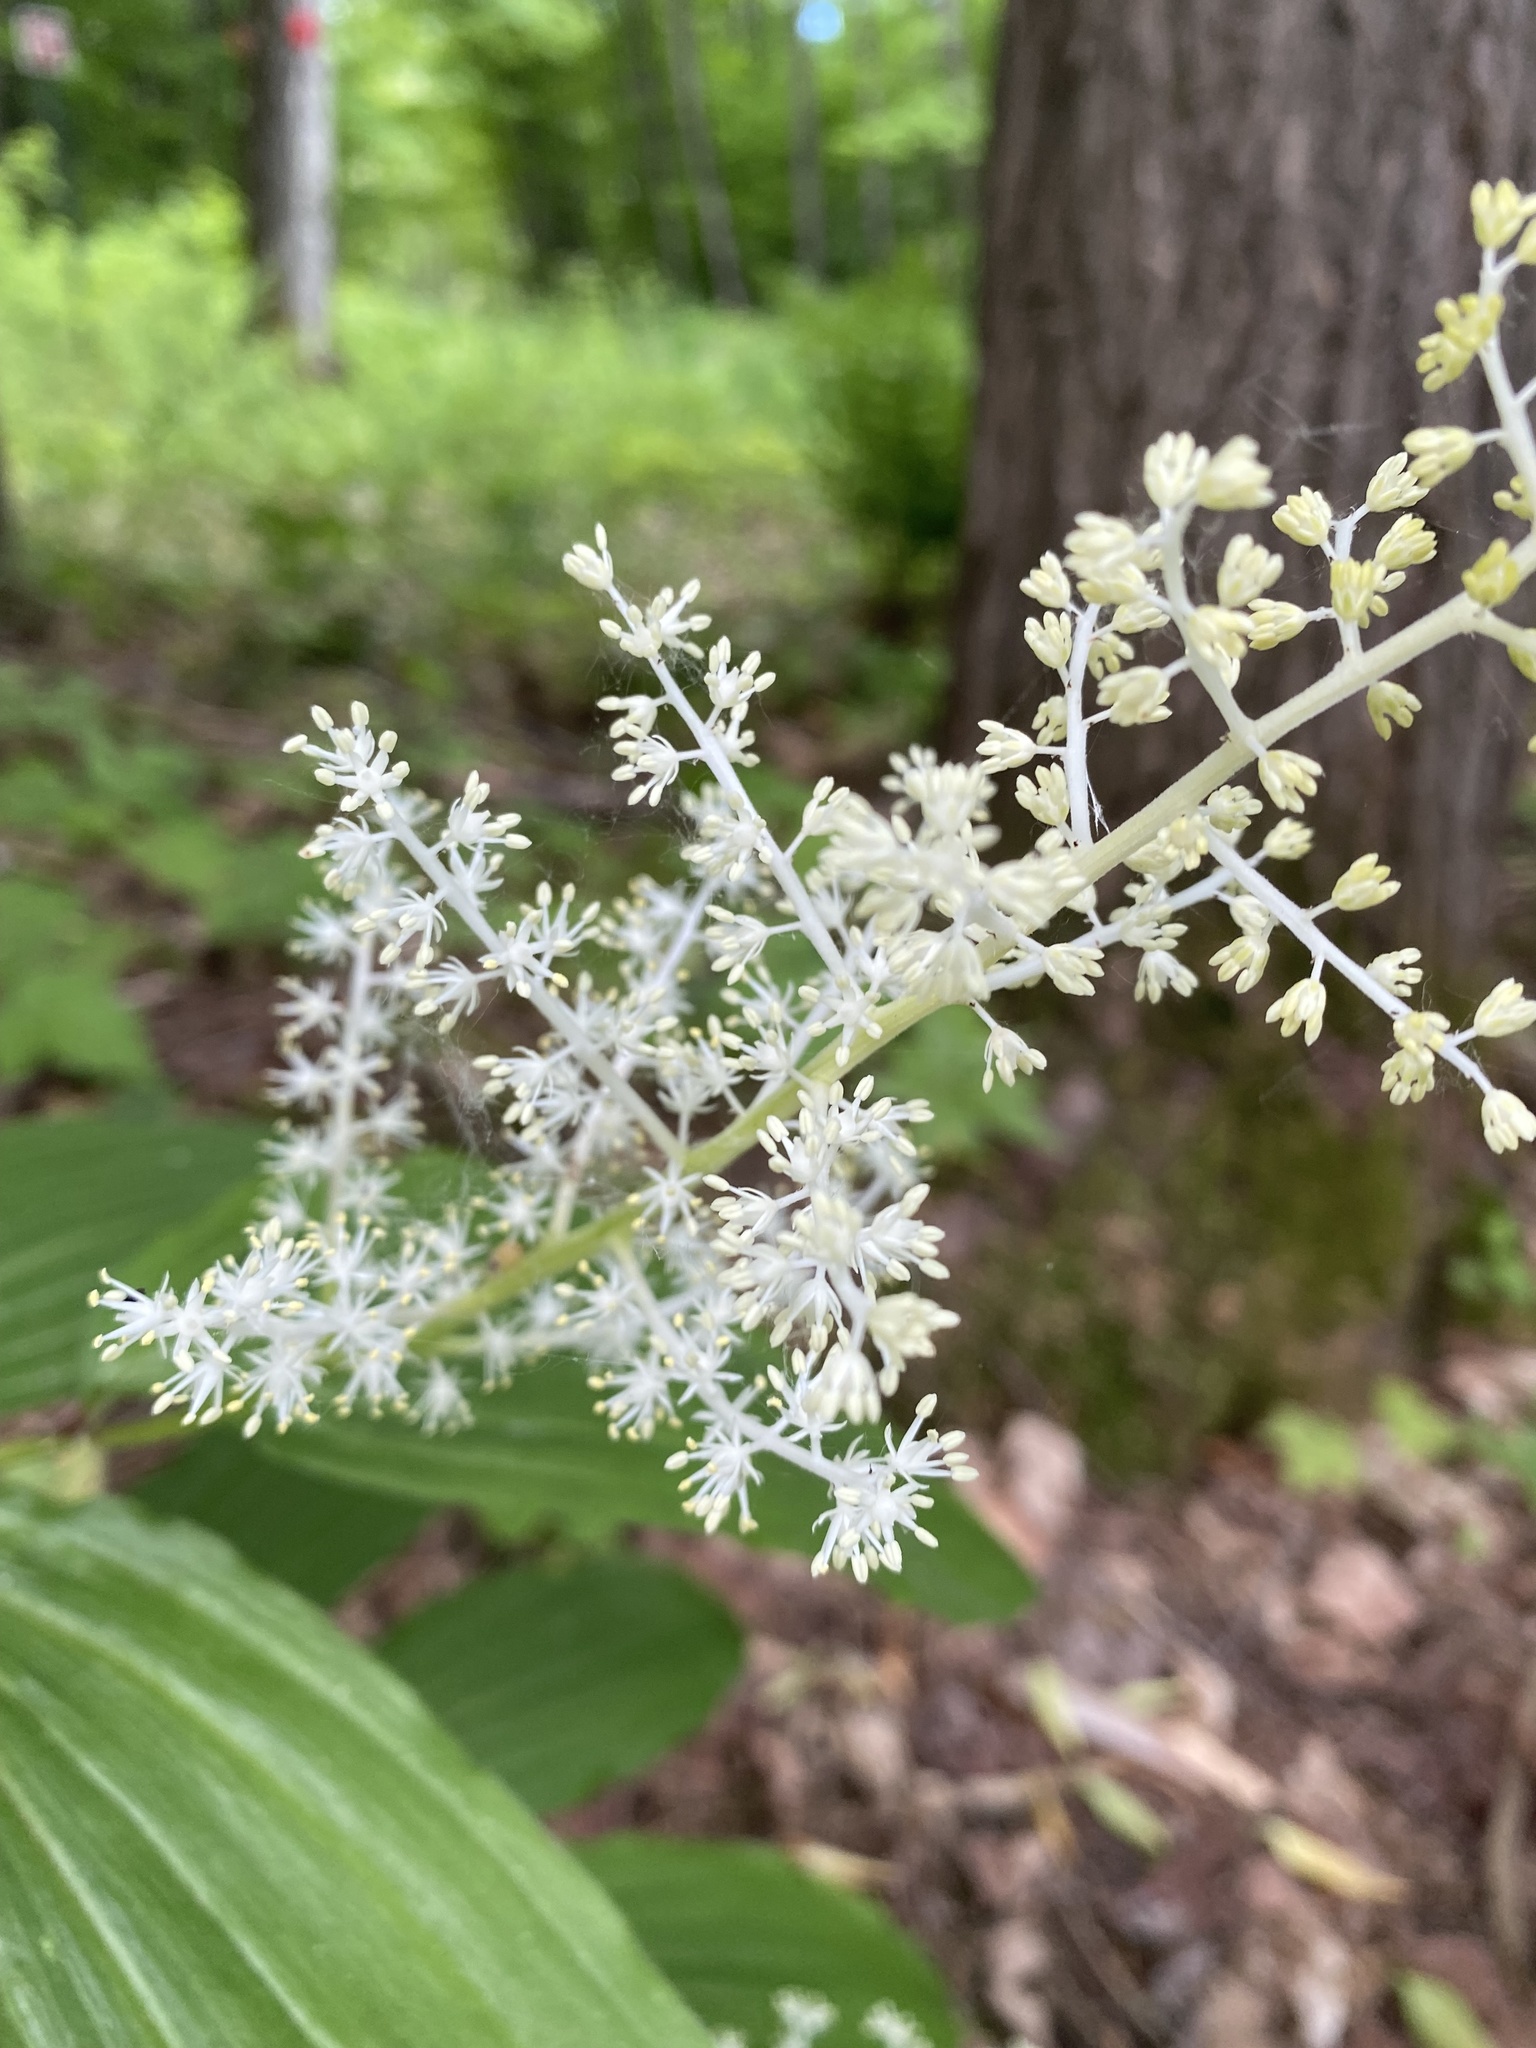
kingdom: Plantae
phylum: Tracheophyta
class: Liliopsida
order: Asparagales
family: Asparagaceae
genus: Maianthemum
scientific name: Maianthemum racemosum
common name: False spikenard
